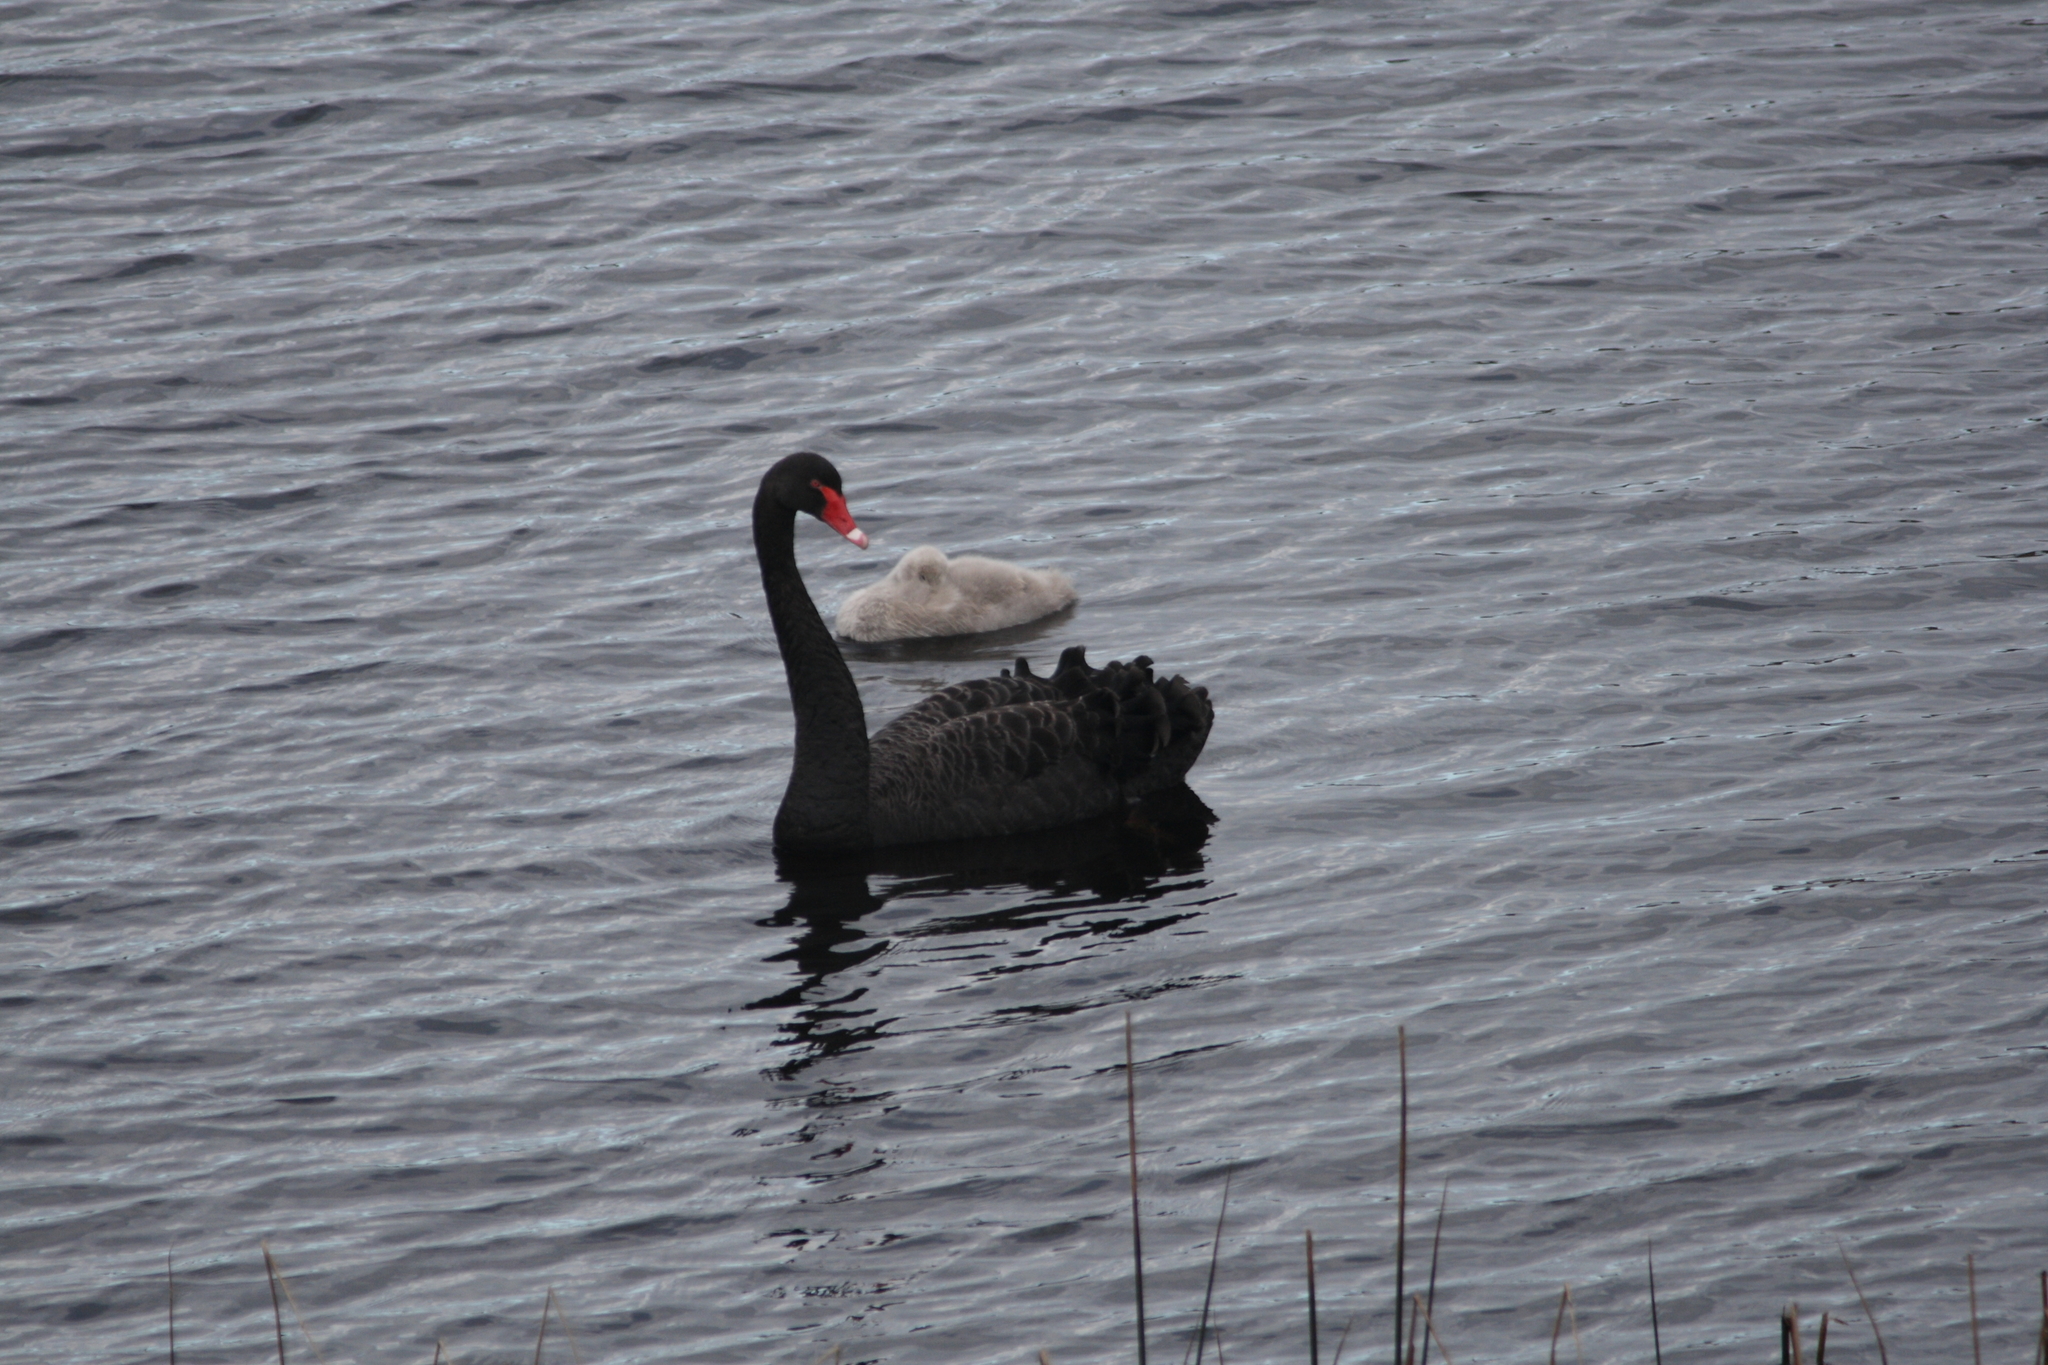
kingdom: Animalia
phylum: Chordata
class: Aves
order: Anseriformes
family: Anatidae
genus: Cygnus
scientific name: Cygnus atratus
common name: Black swan
